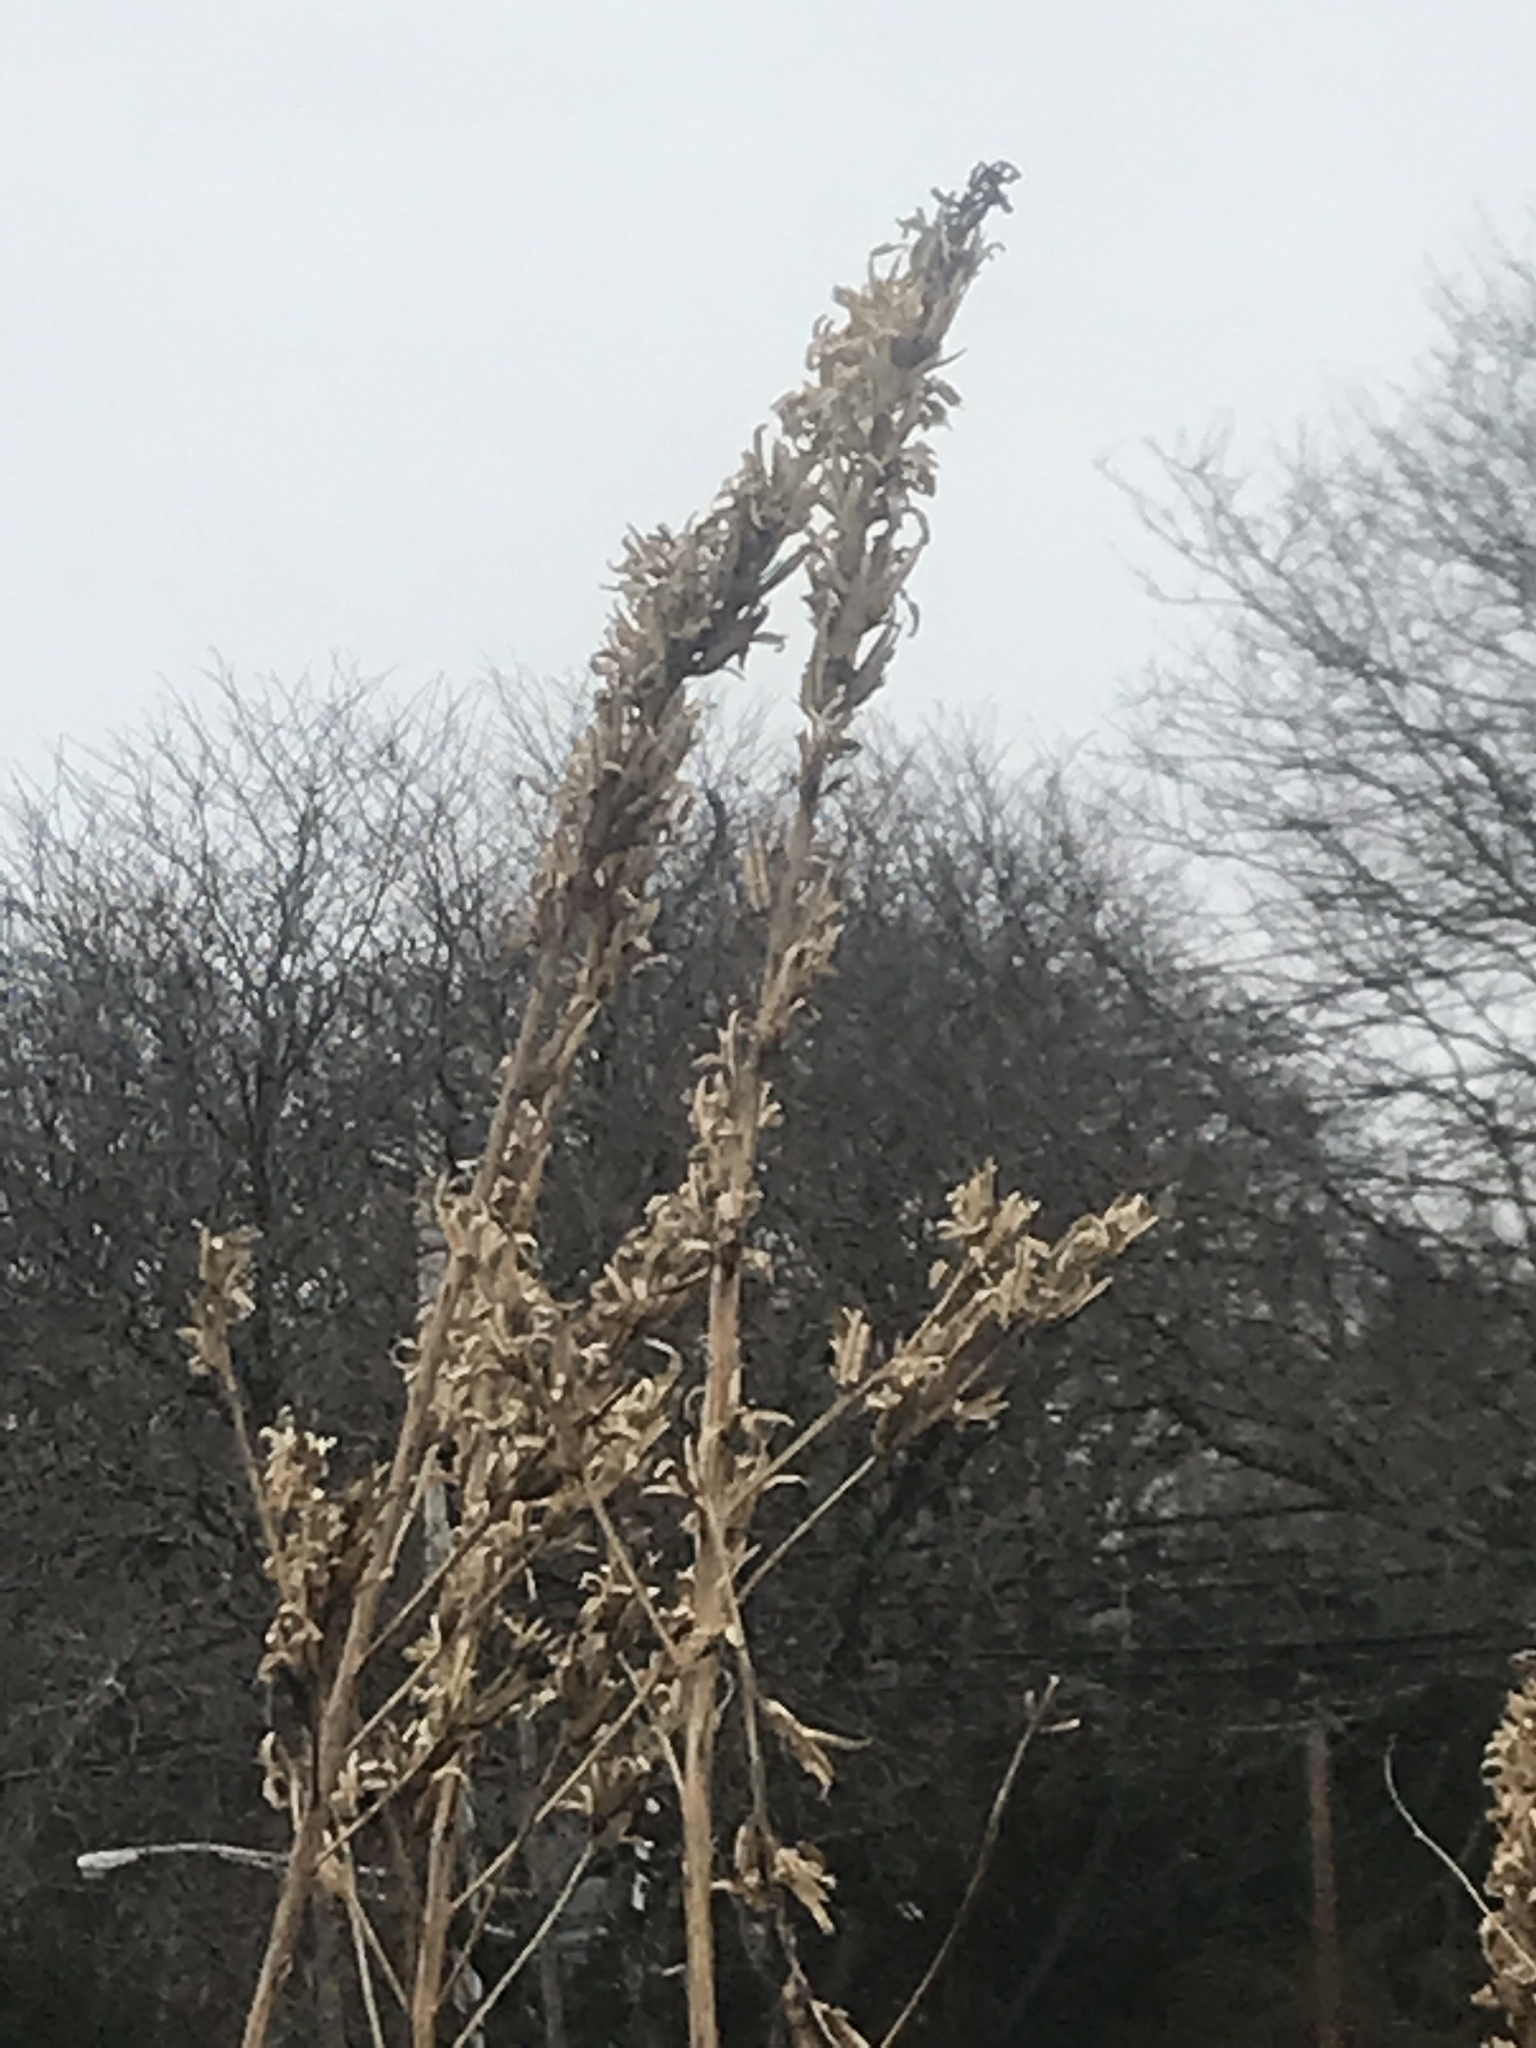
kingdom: Plantae
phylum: Tracheophyta
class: Magnoliopsida
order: Myrtales
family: Onagraceae
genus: Oenothera
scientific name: Oenothera biennis
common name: Common evening-primrose
